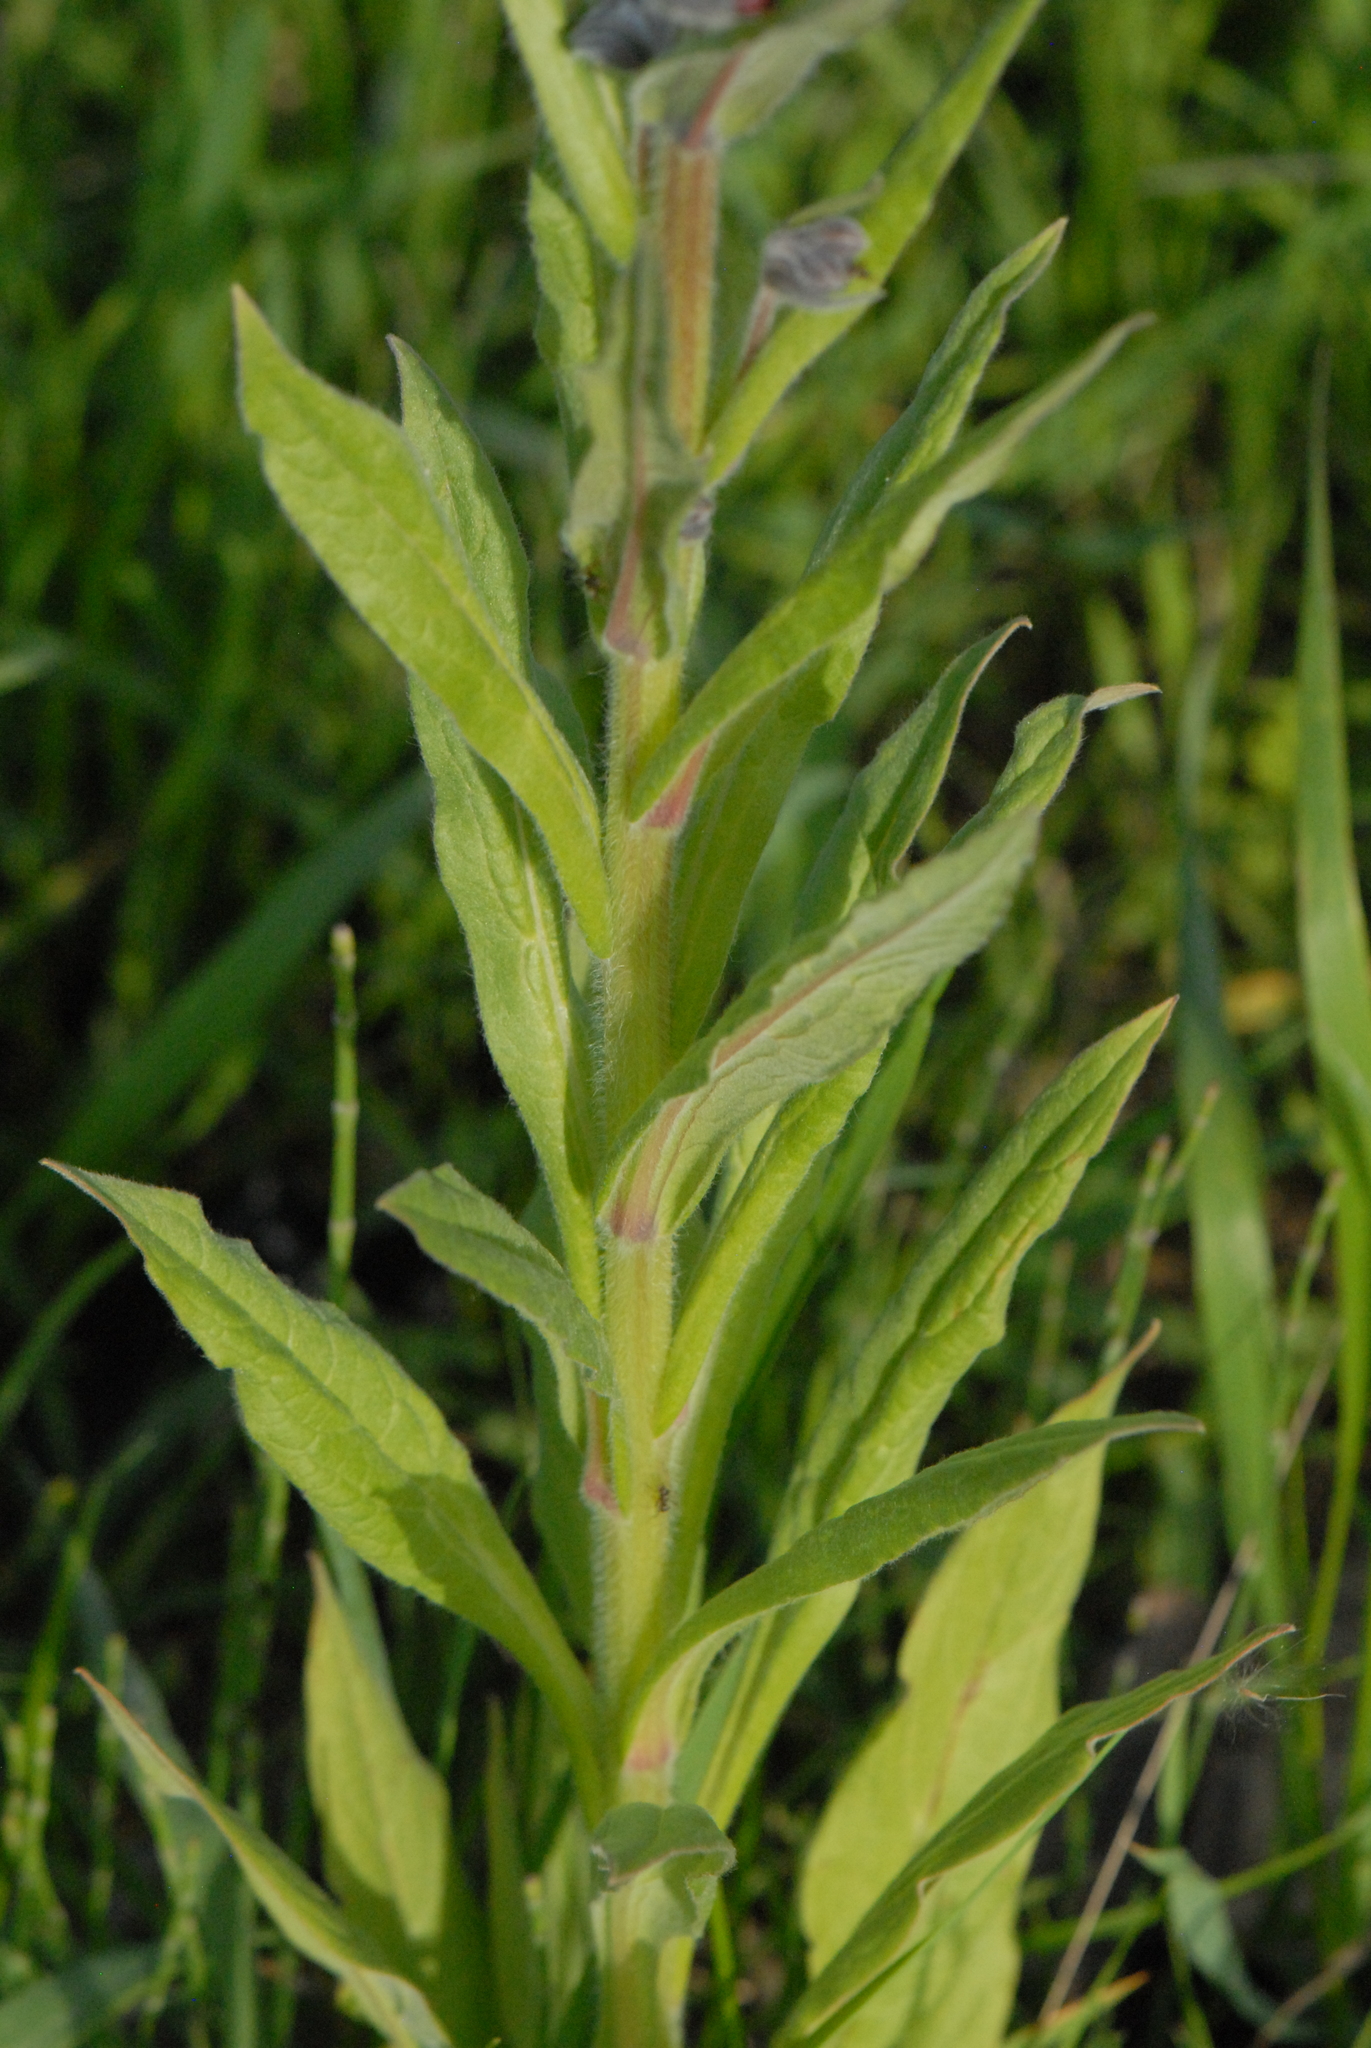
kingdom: Plantae
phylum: Tracheophyta
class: Magnoliopsida
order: Boraginales
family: Boraginaceae
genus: Cynoglossum
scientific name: Cynoglossum officinale
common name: Hound's-tongue
